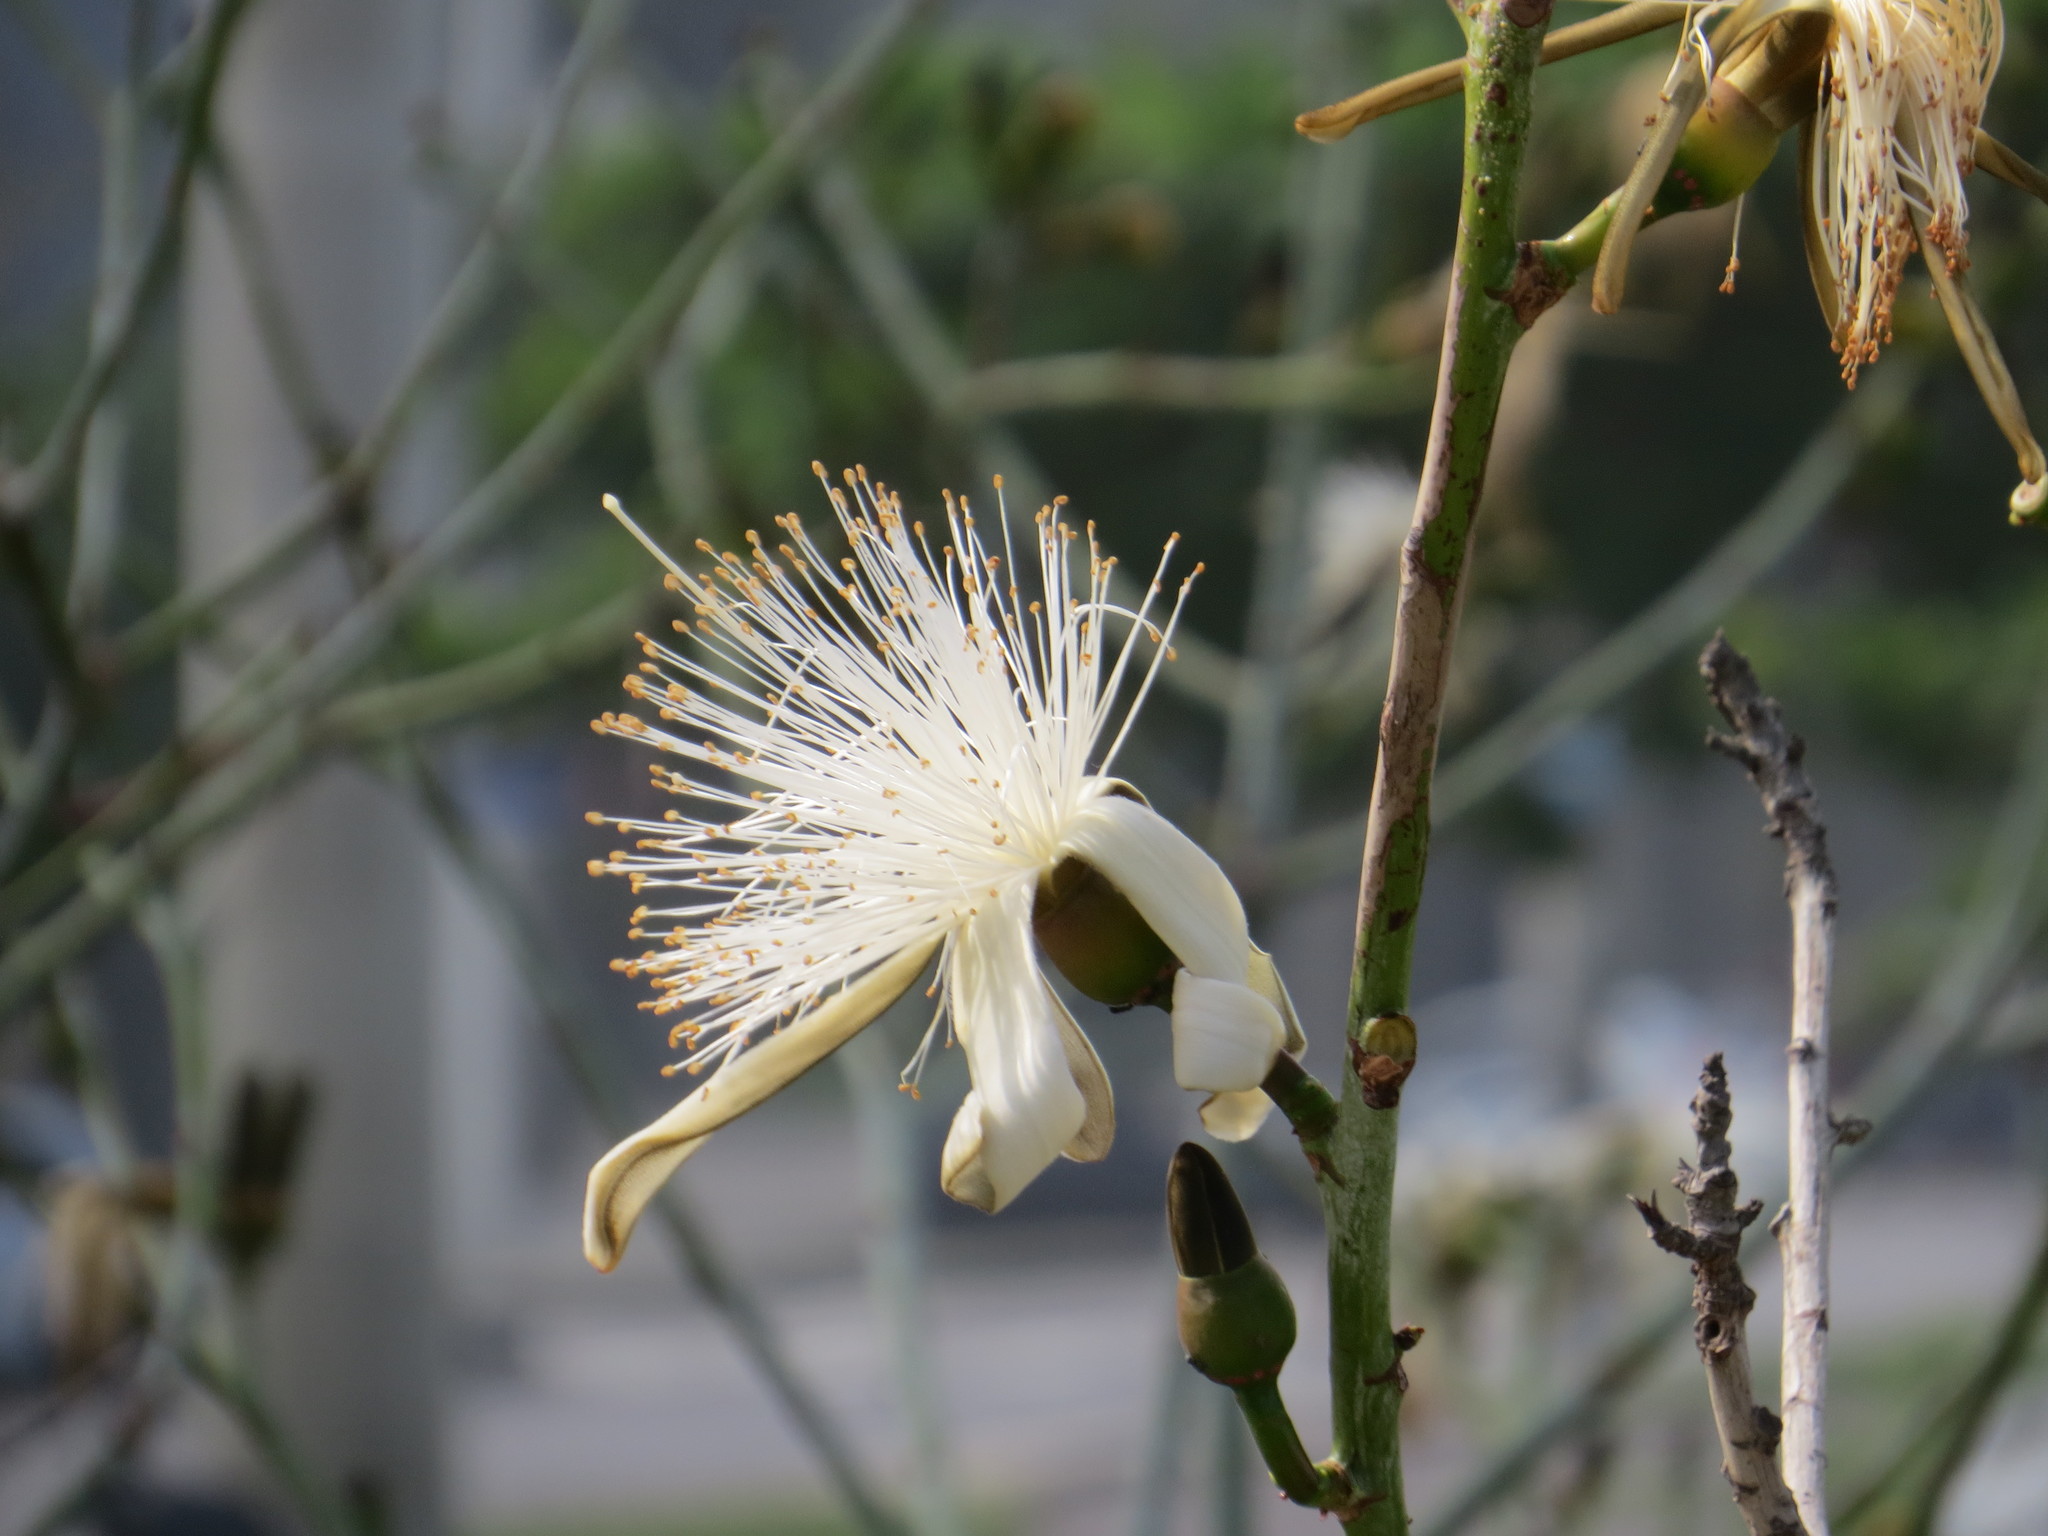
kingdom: Plantae
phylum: Tracheophyta
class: Magnoliopsida
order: Malvales
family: Malvaceae
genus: Pseudobombax
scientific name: Pseudobombax grandiflorum
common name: Brazilian shaving-brush-tree
